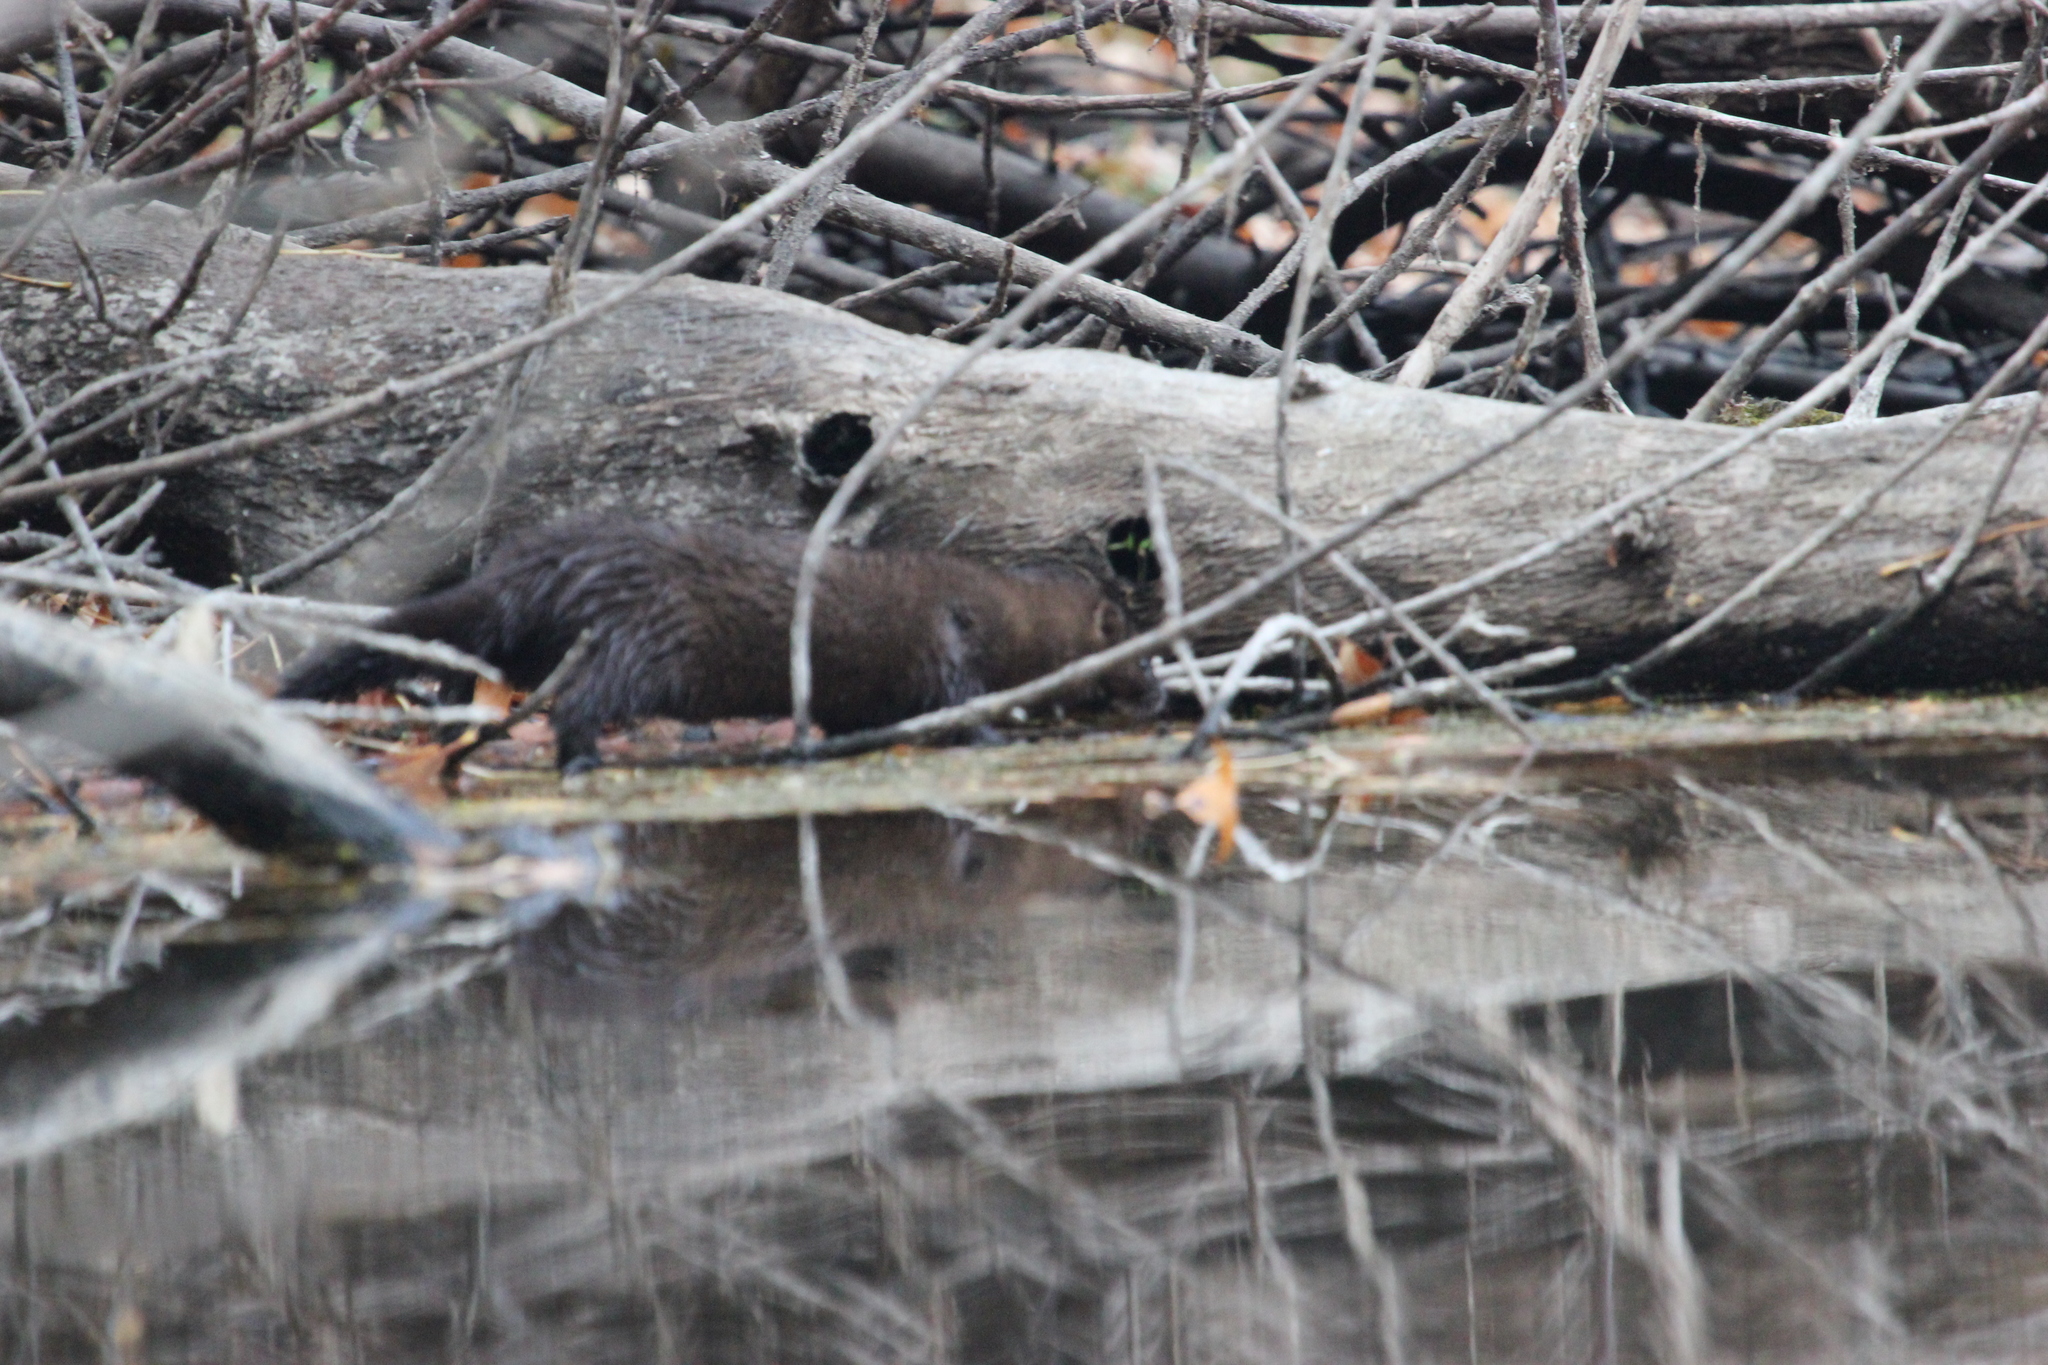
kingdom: Animalia
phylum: Chordata
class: Mammalia
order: Carnivora
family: Mustelidae
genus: Mustela
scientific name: Mustela lutreola
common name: European mink
